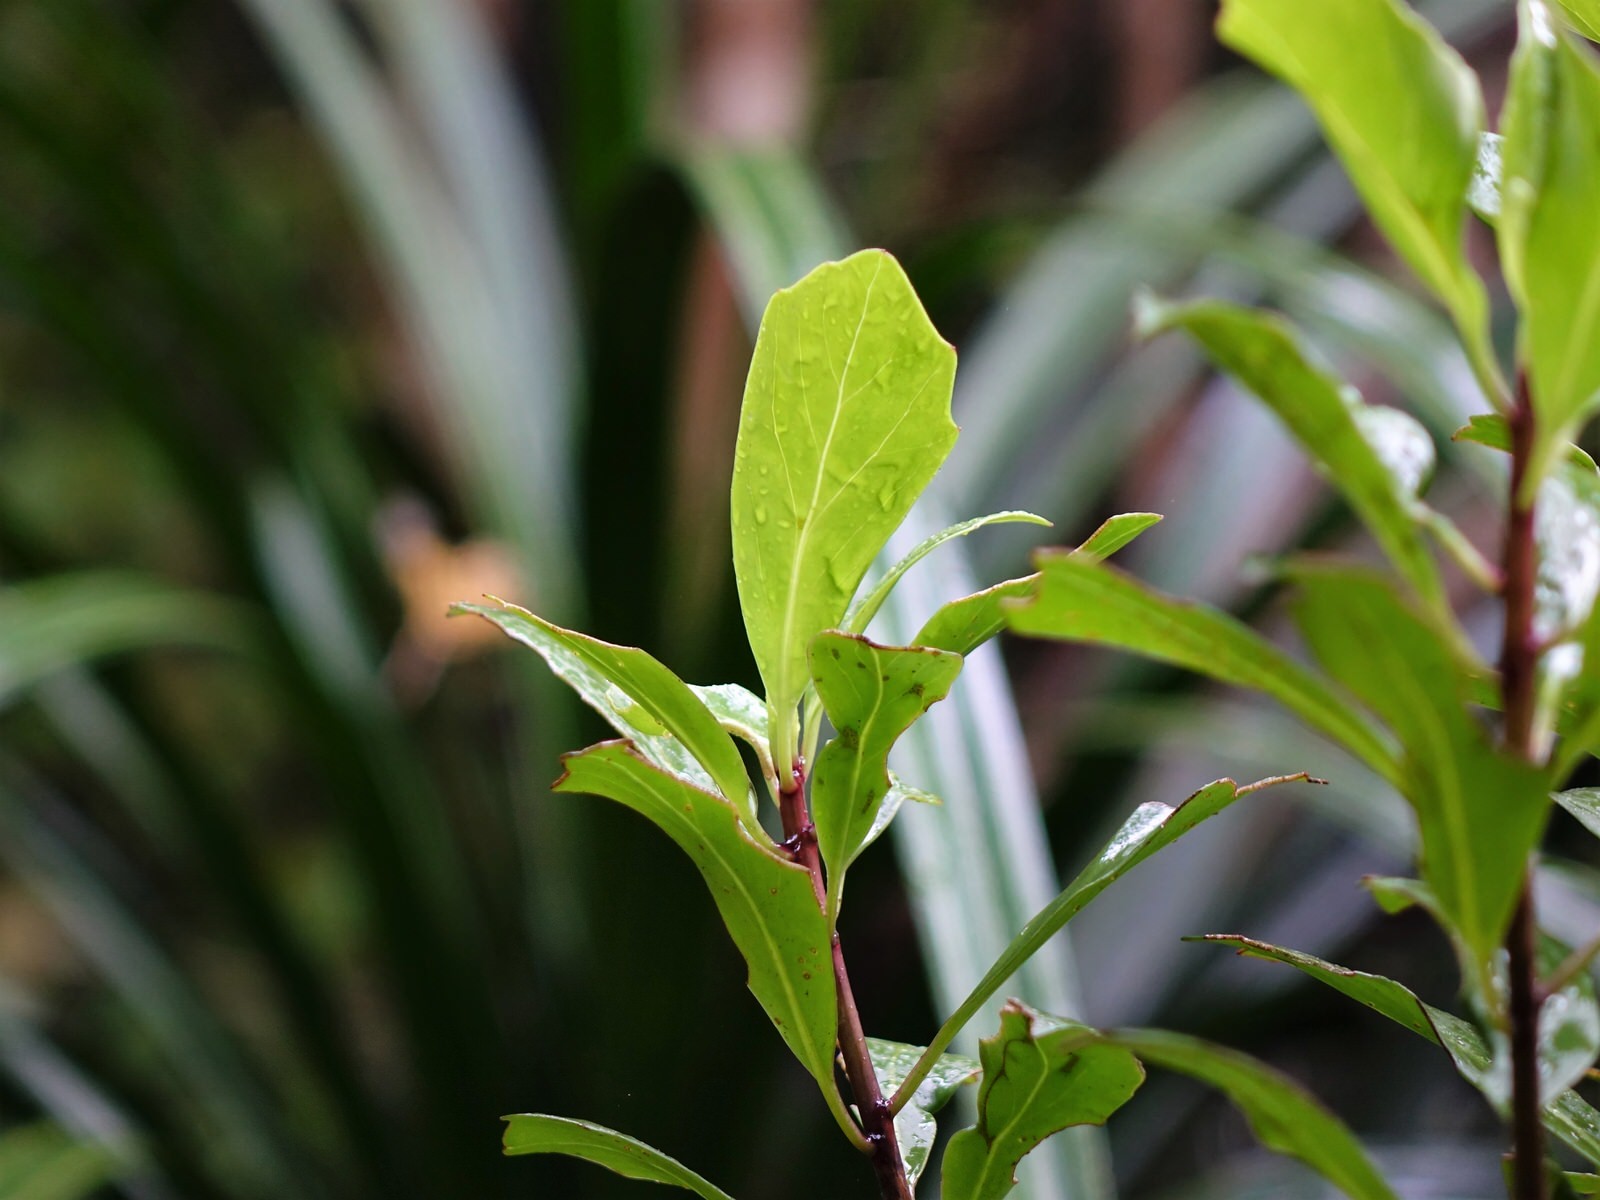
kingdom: Plantae
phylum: Tracheophyta
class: Magnoliopsida
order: Asterales
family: Asteraceae
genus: Brachyglottis
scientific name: Brachyglottis kirkii
